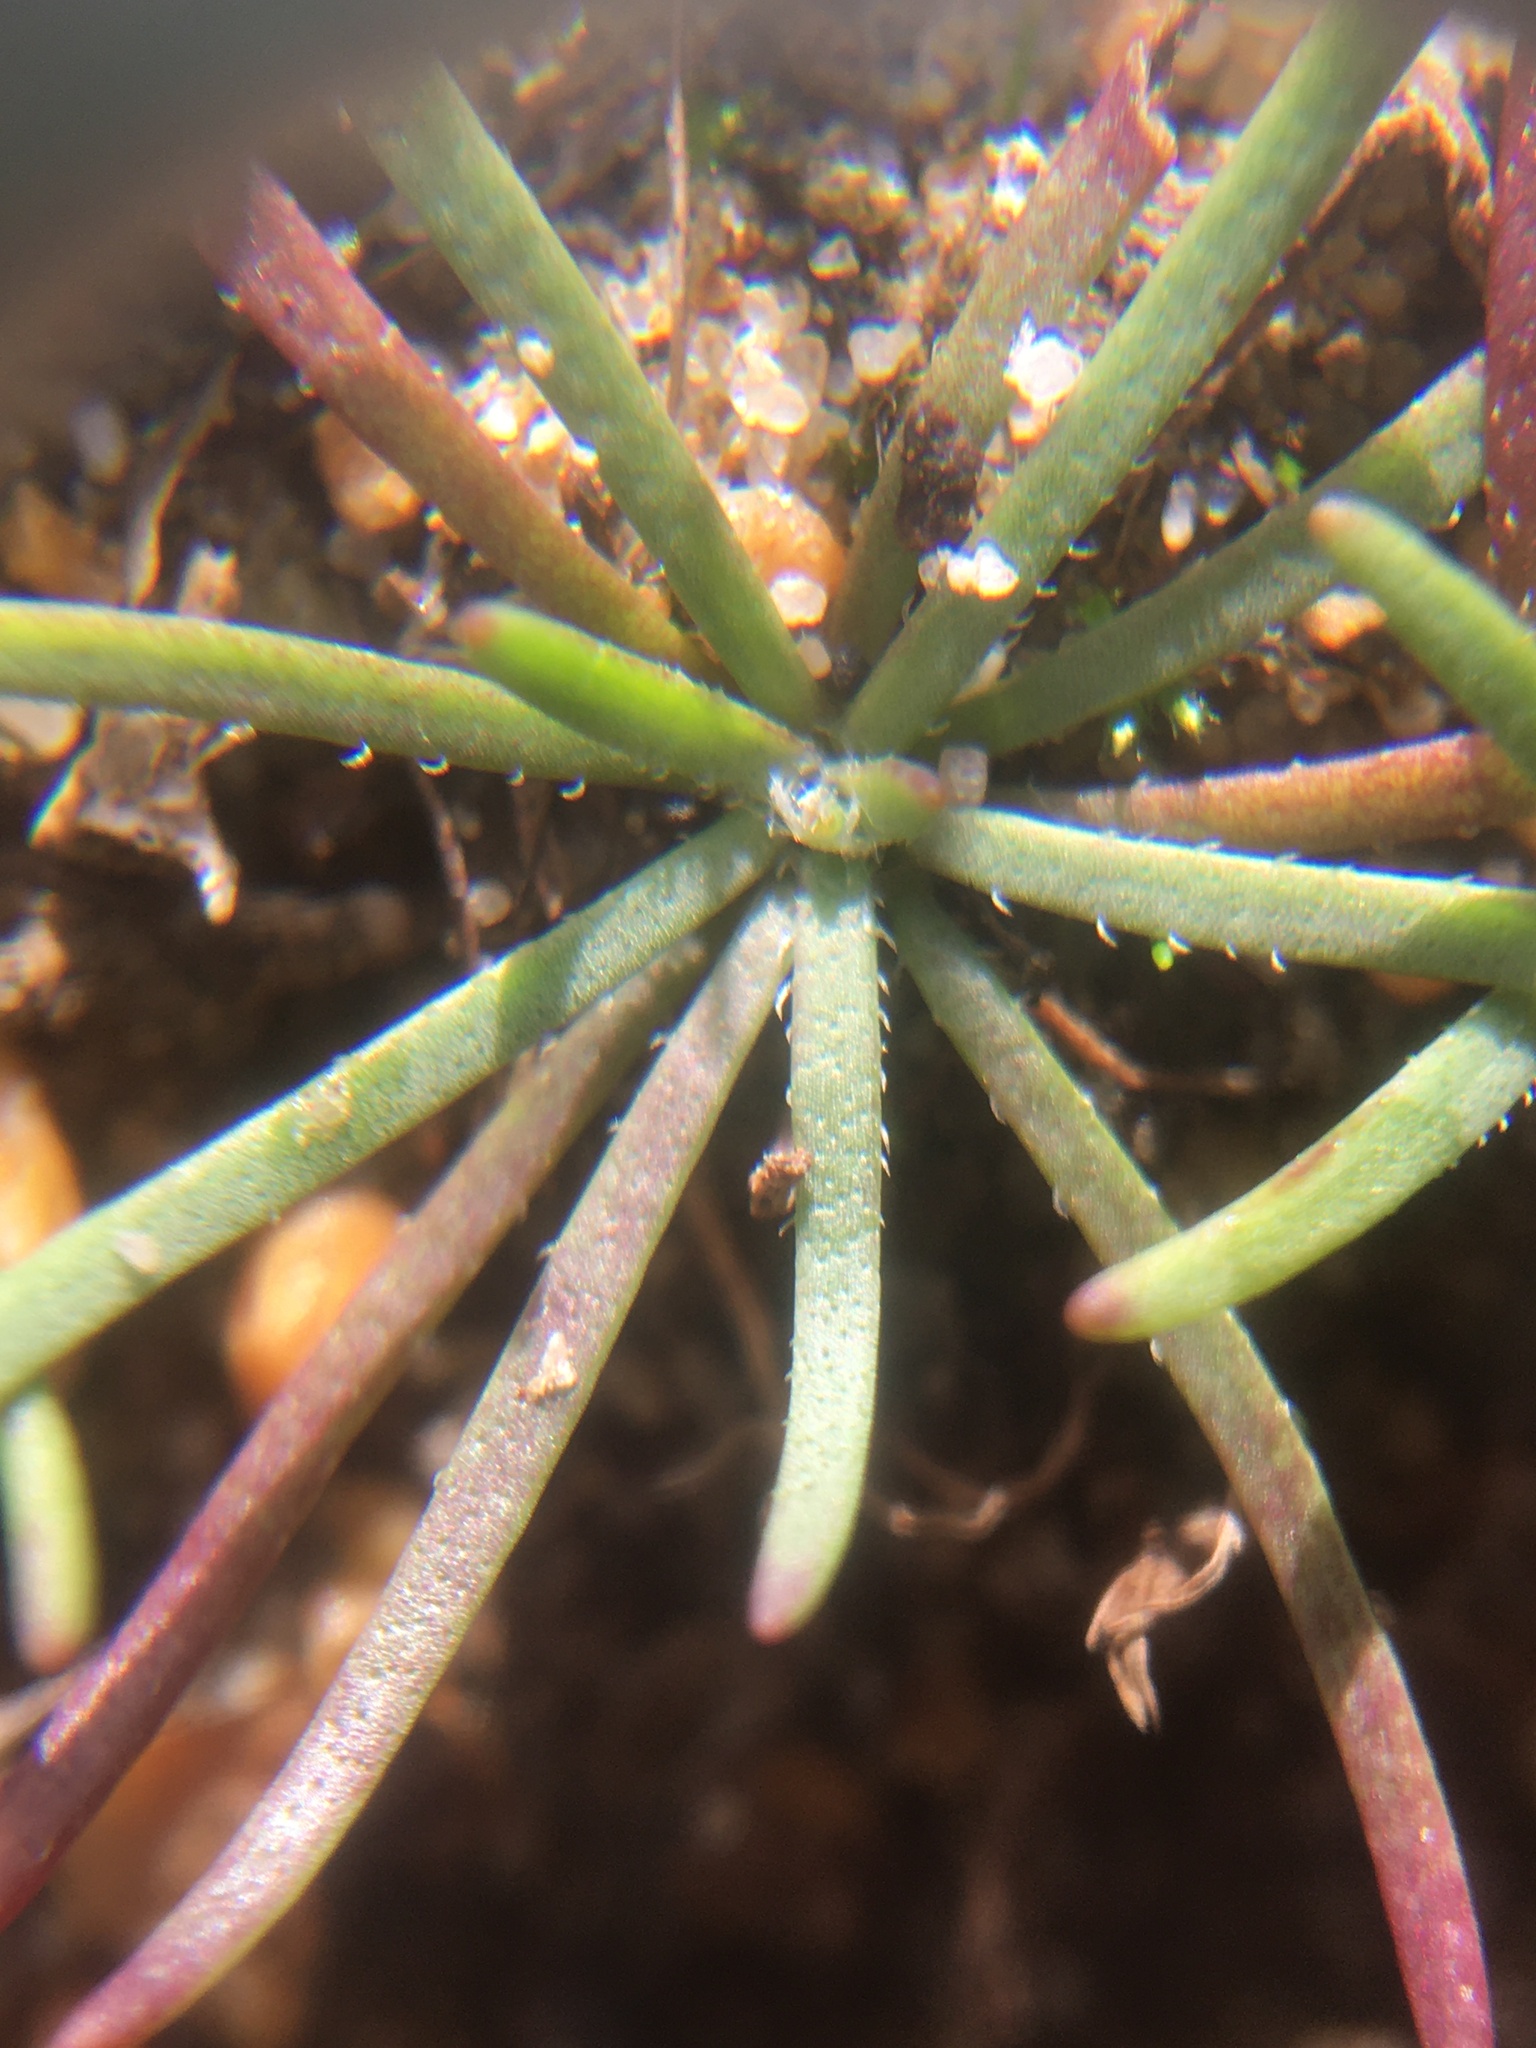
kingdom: Plantae
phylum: Tracheophyta
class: Magnoliopsida
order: Asterales
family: Asteraceae
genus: Felicia
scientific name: Felicia tenella
